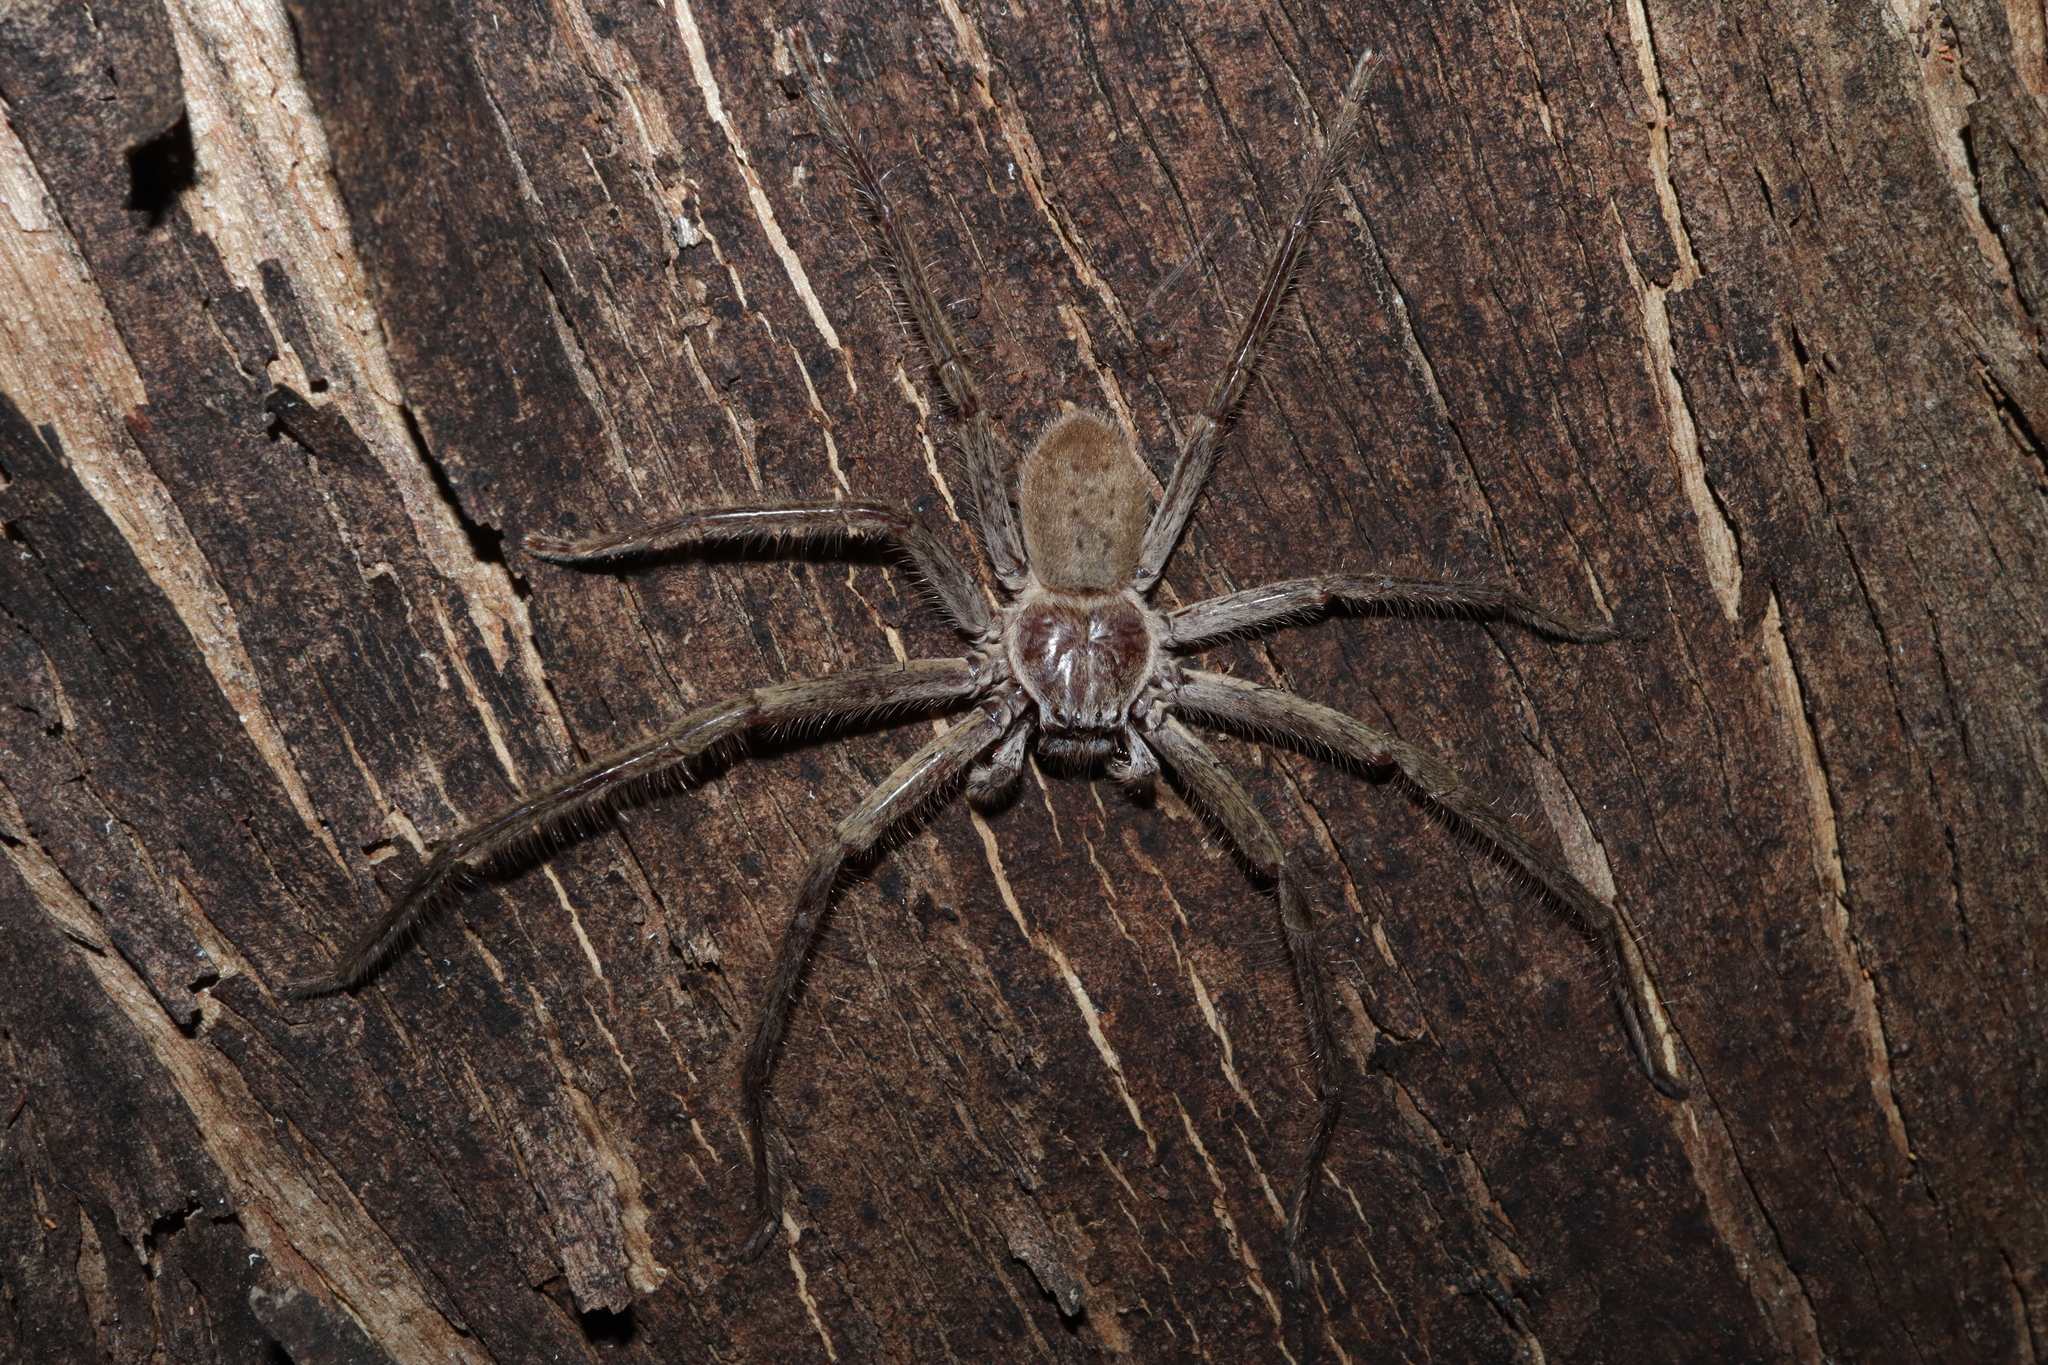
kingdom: Animalia
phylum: Arthropoda
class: Arachnida
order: Araneae
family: Sparassidae
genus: Isopeda
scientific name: Isopeda villosa
